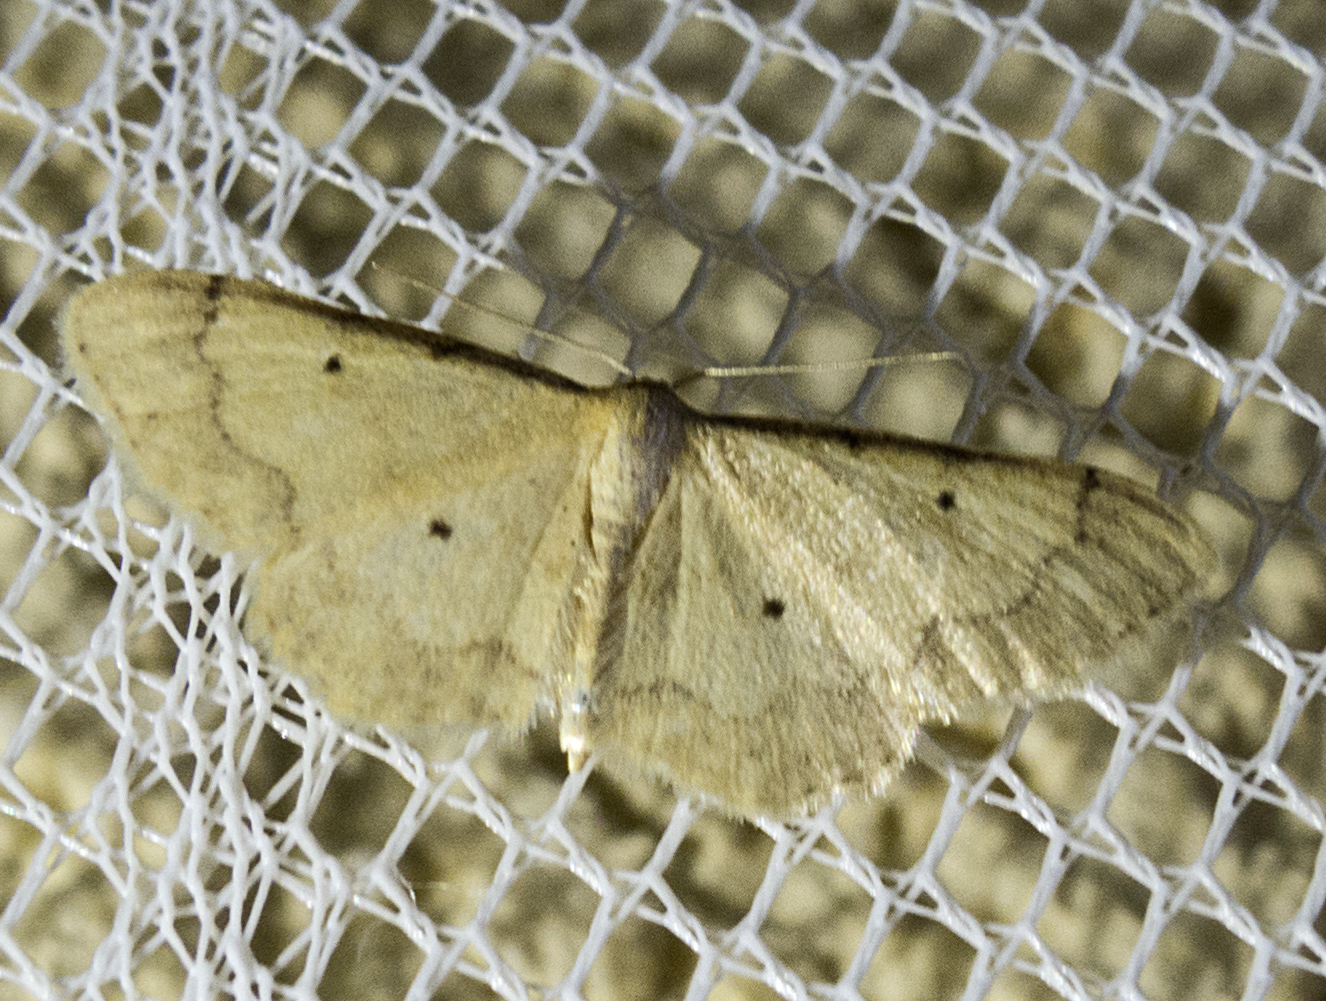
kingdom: Animalia
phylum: Arthropoda
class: Insecta
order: Lepidoptera
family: Geometridae
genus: Idaea
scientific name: Idaea politaria
